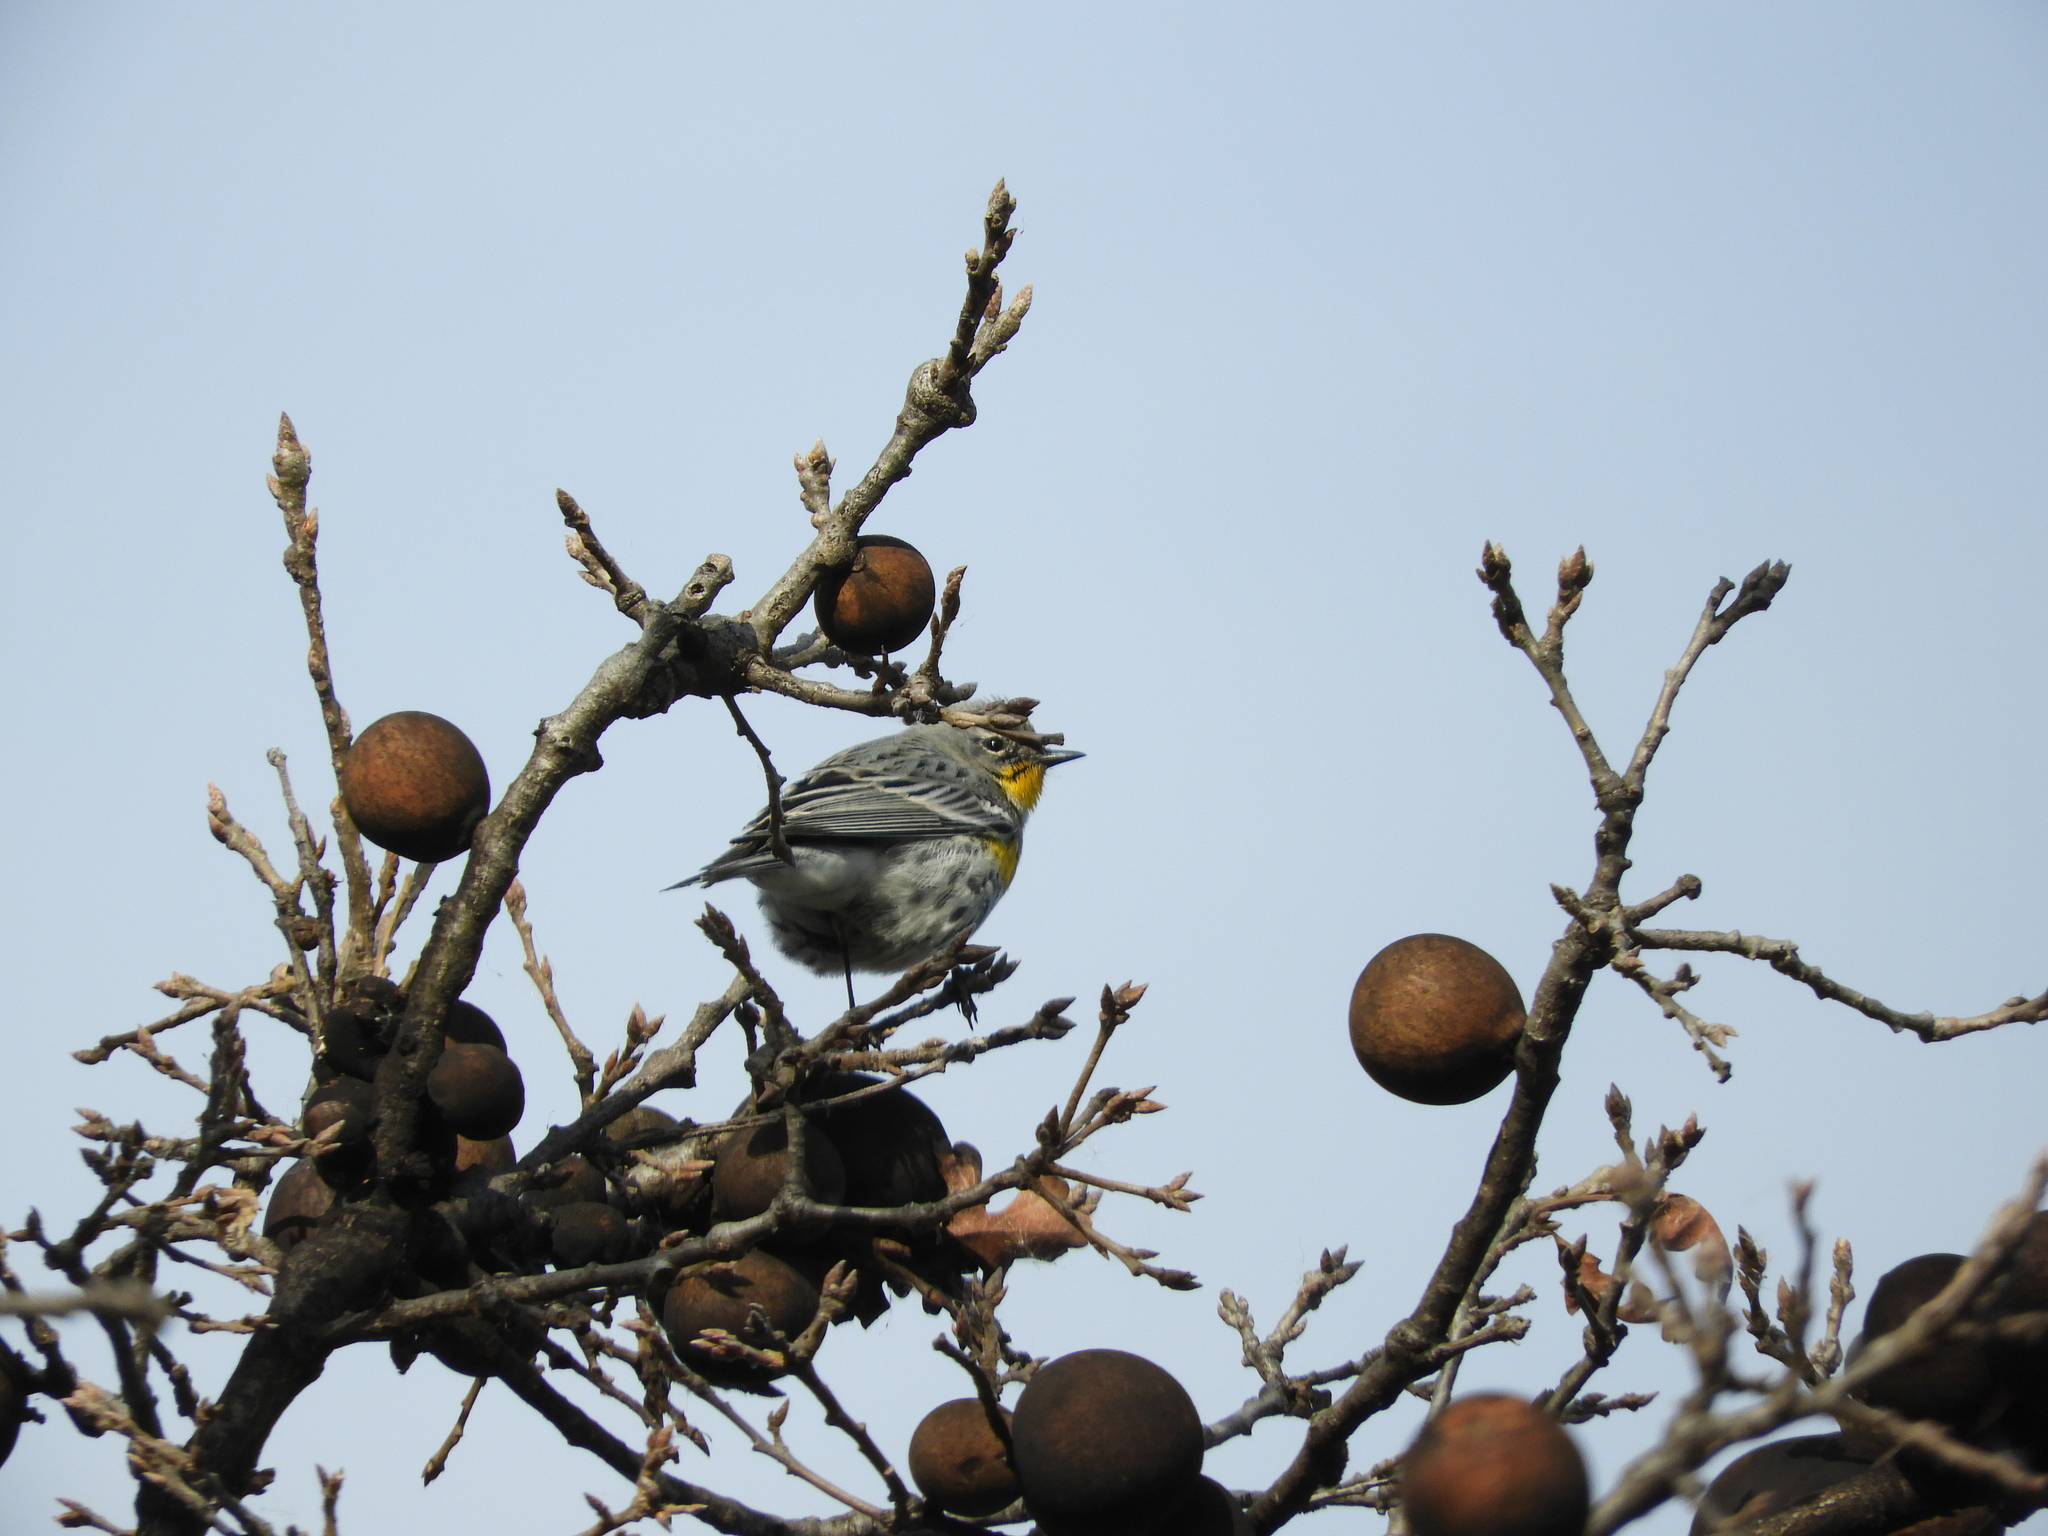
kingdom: Animalia
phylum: Chordata
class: Aves
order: Passeriformes
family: Parulidae
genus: Setophaga
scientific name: Setophaga auduboni
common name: Audubon's warbler
